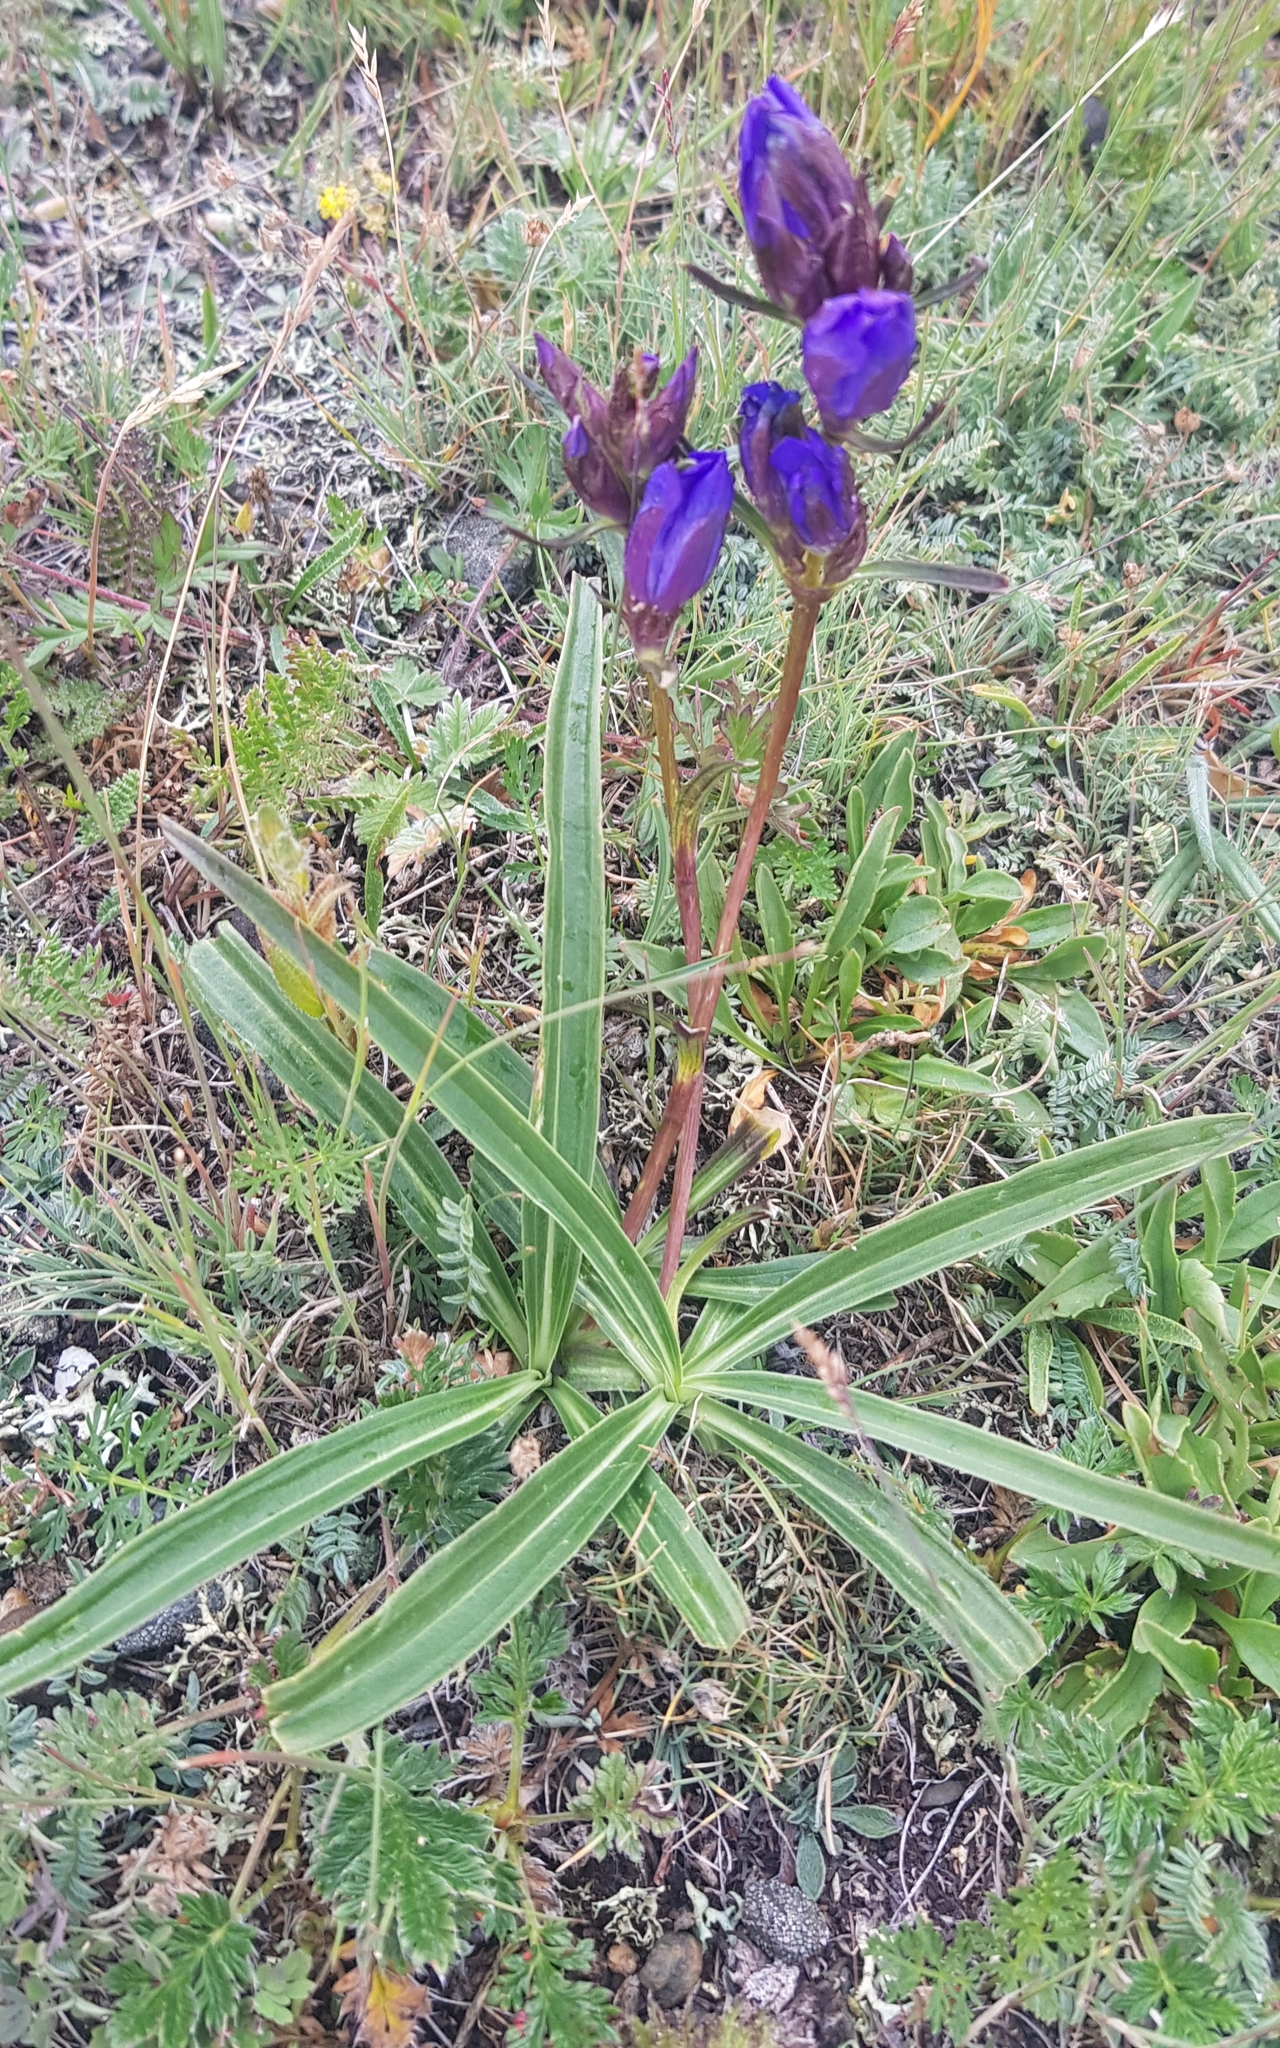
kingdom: Plantae
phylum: Tracheophyta
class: Magnoliopsida
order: Gentianales
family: Gentianaceae
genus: Gentiana
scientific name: Gentiana decumbens
